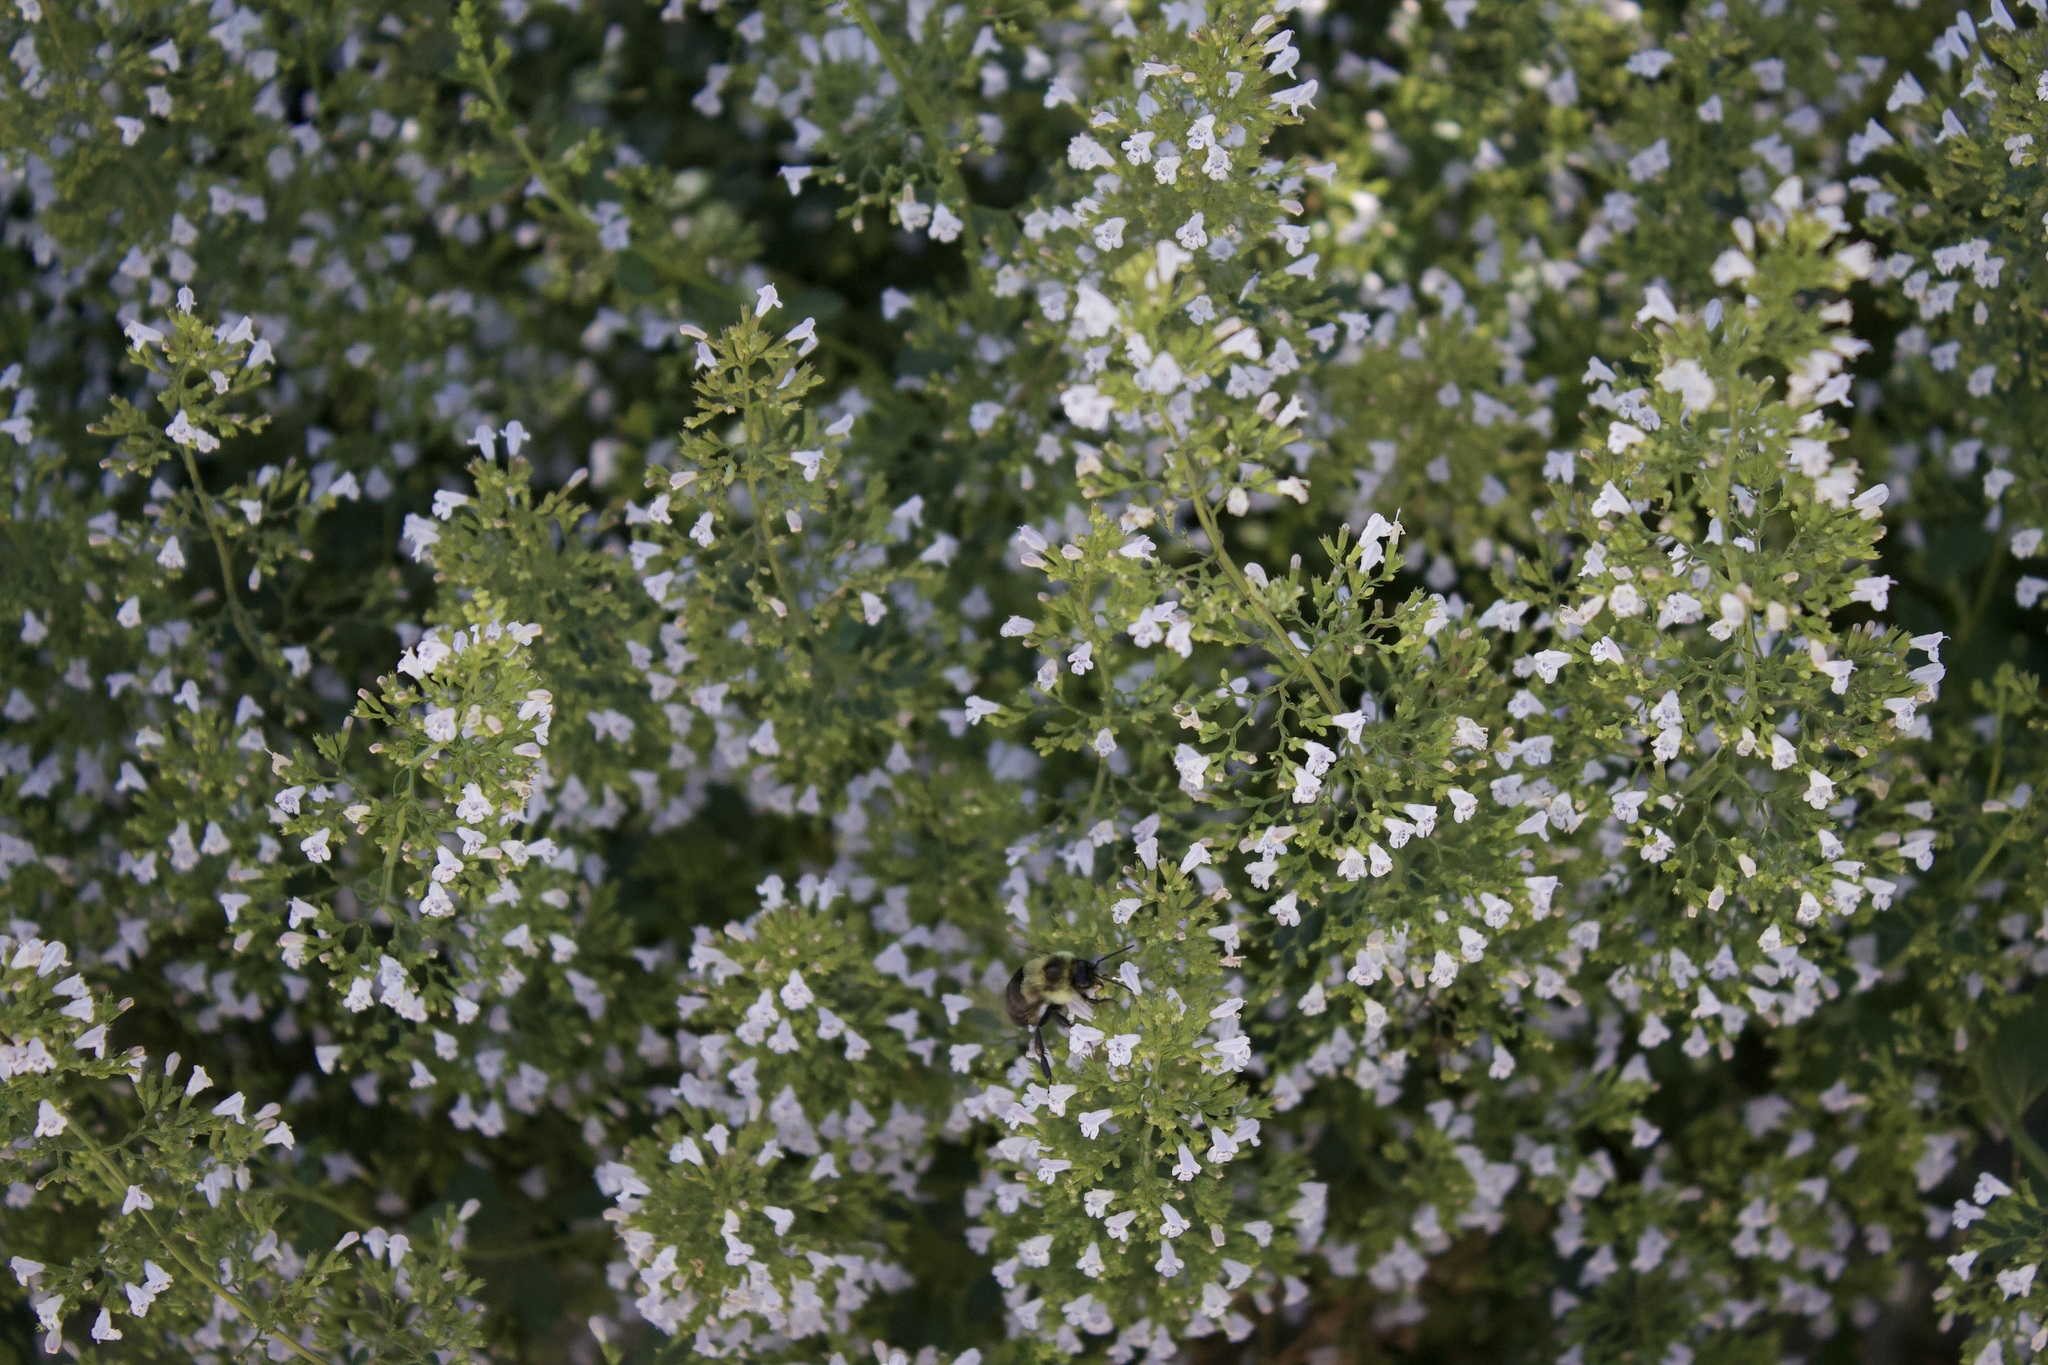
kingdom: Animalia
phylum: Arthropoda
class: Insecta
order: Hymenoptera
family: Apidae
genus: Bombus
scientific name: Bombus impatiens
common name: Common eastern bumble bee
